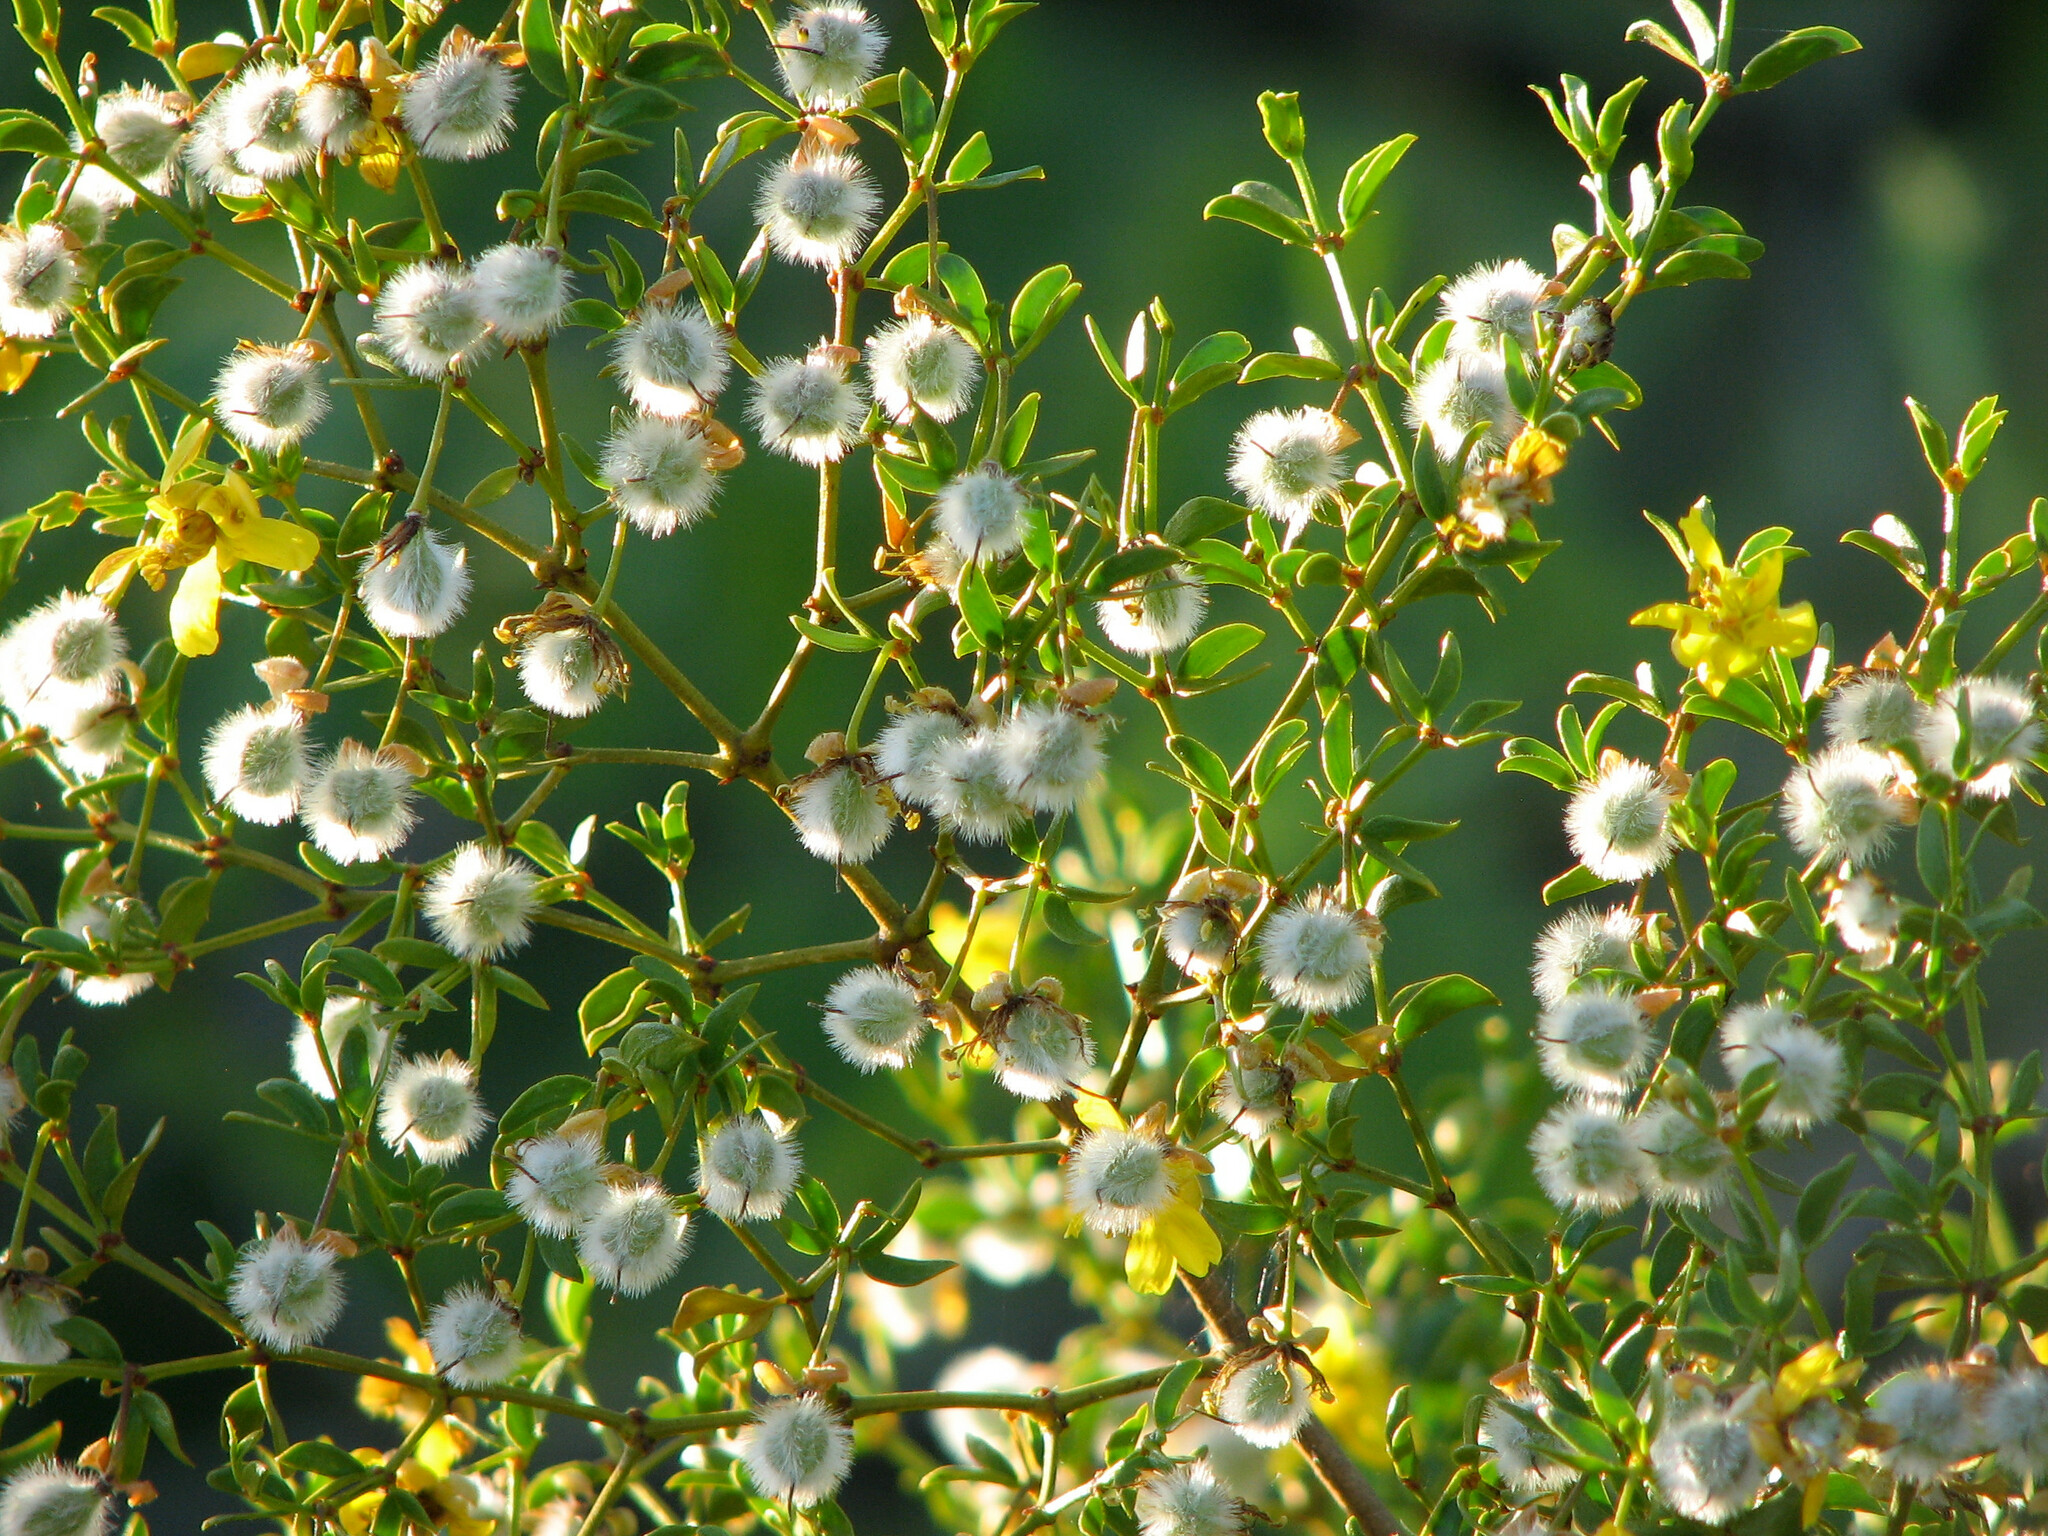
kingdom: Plantae
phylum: Tracheophyta
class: Magnoliopsida
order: Zygophyllales
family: Zygophyllaceae
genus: Larrea
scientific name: Larrea tridentata
